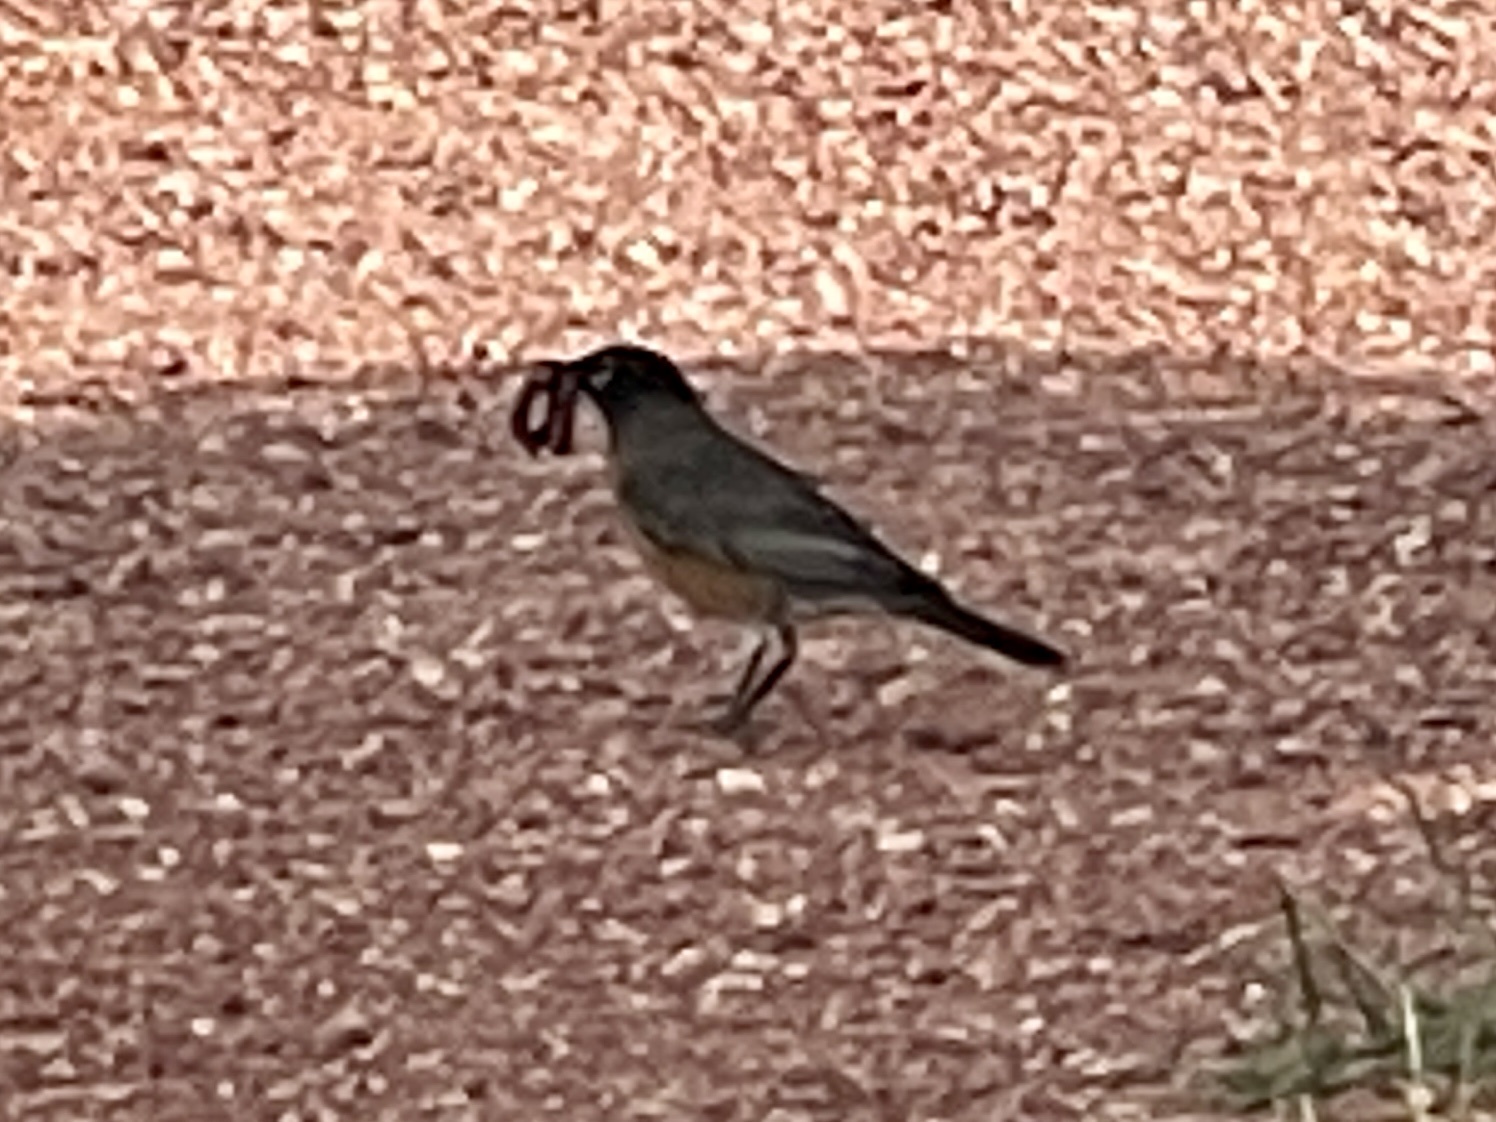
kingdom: Animalia
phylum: Chordata
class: Aves
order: Passeriformes
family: Turdidae
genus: Turdus
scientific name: Turdus migratorius
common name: American robin
